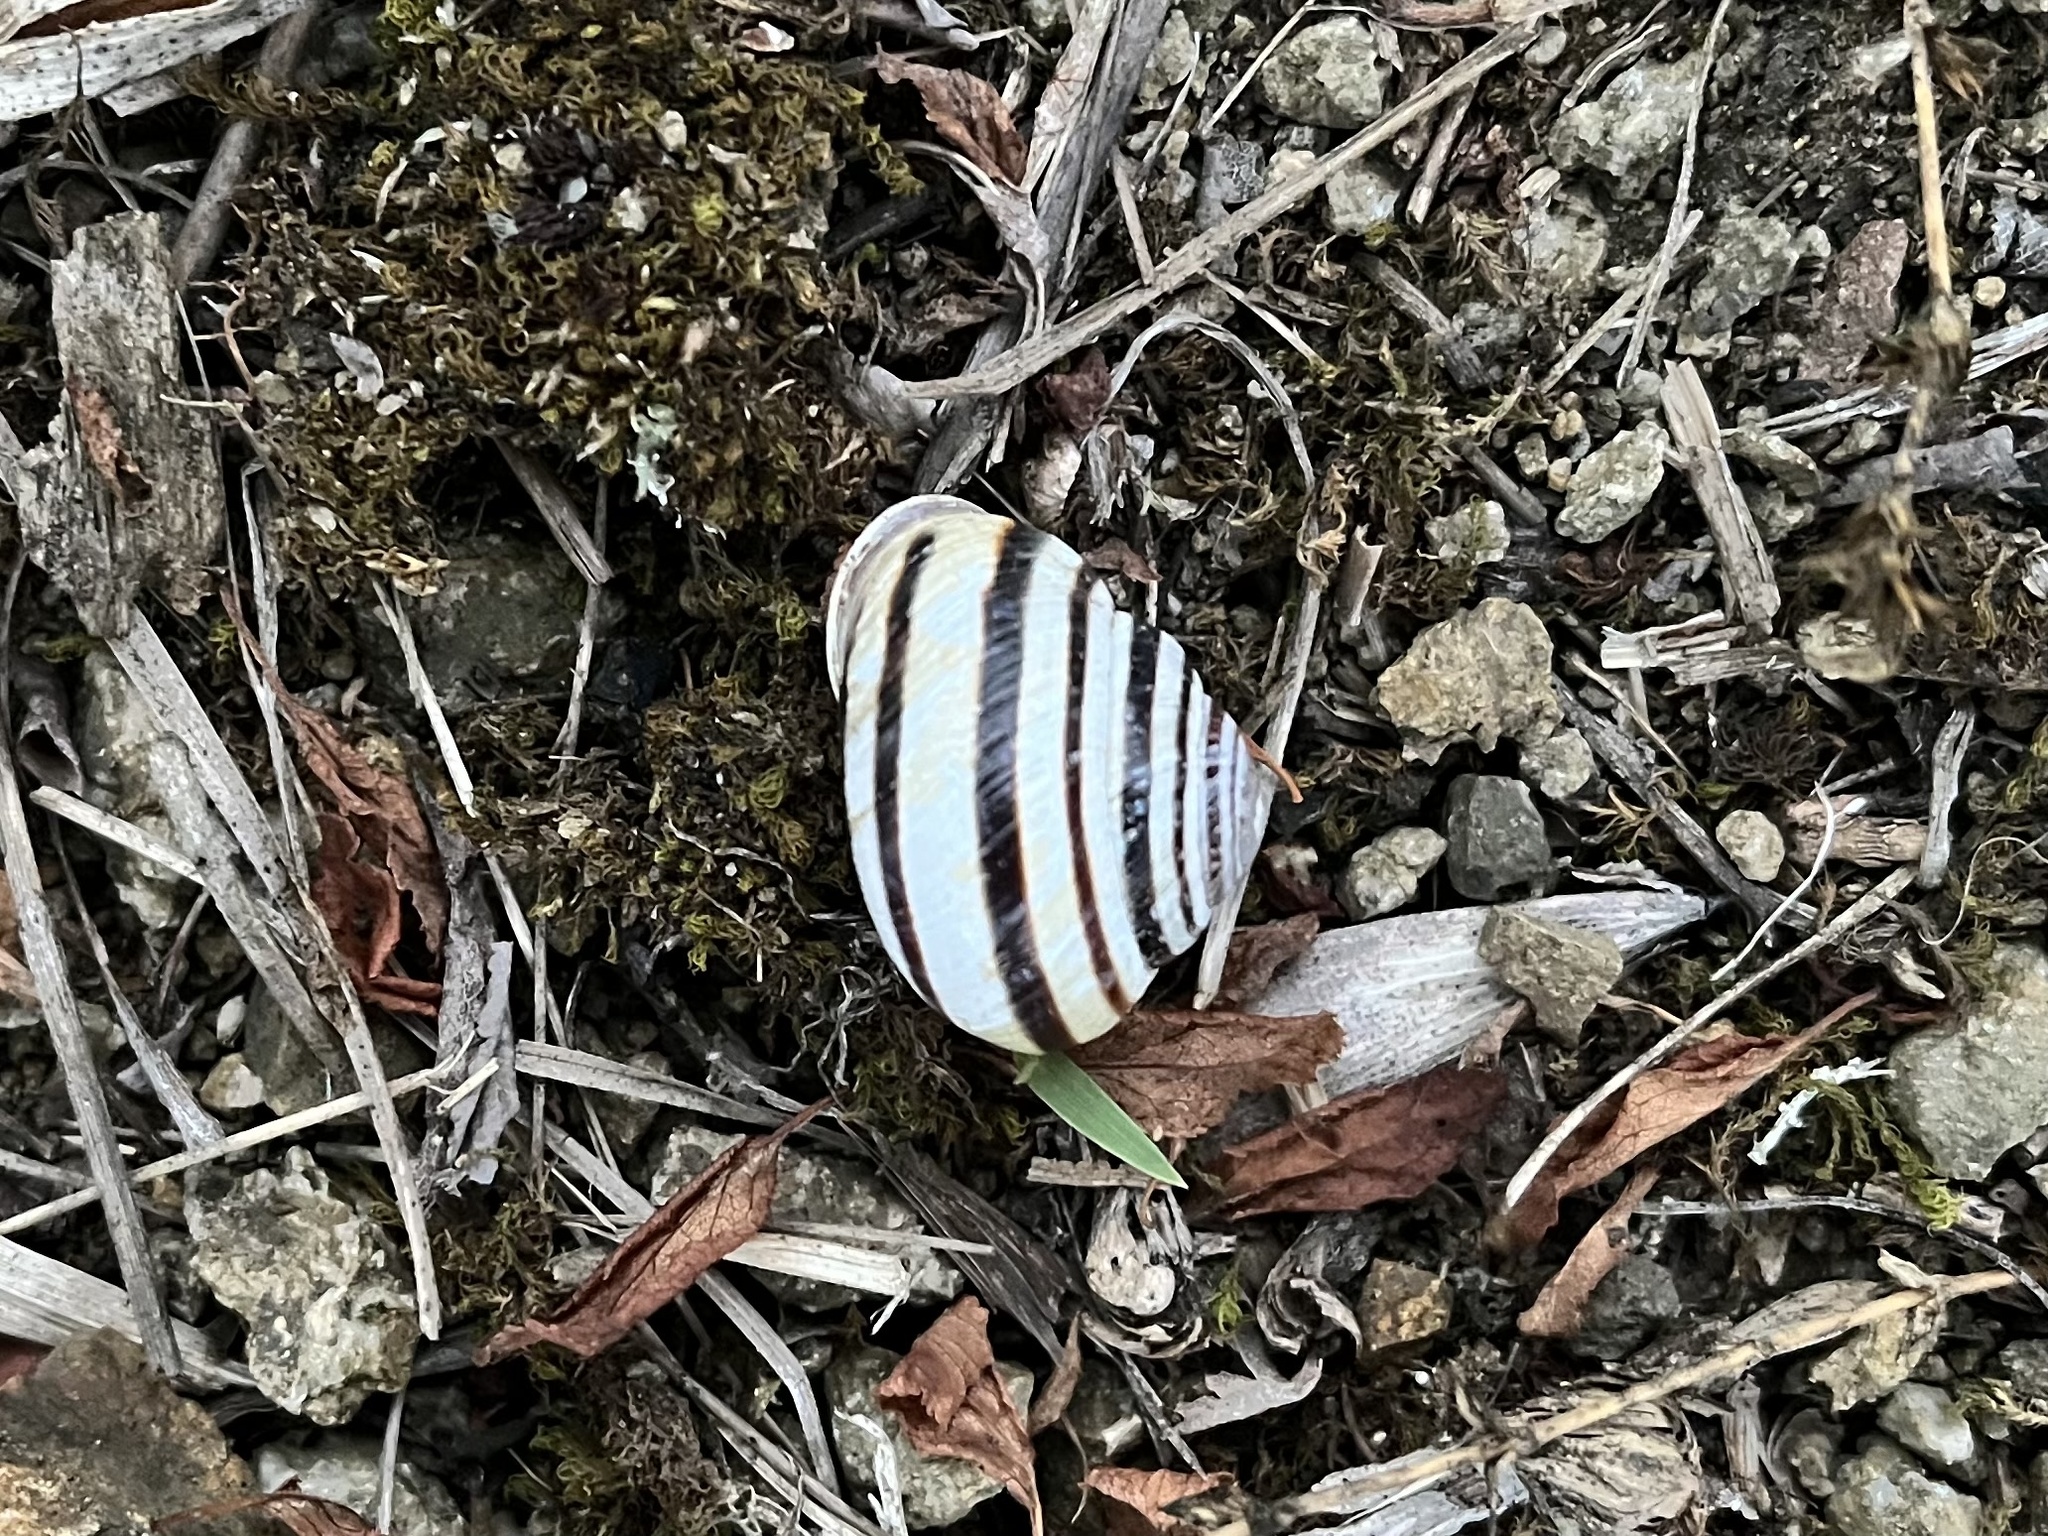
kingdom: Animalia
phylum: Mollusca
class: Gastropoda
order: Stylommatophora
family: Helicidae
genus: Caucasotachea
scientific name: Caucasotachea vindobonensis
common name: European helicid land snail
